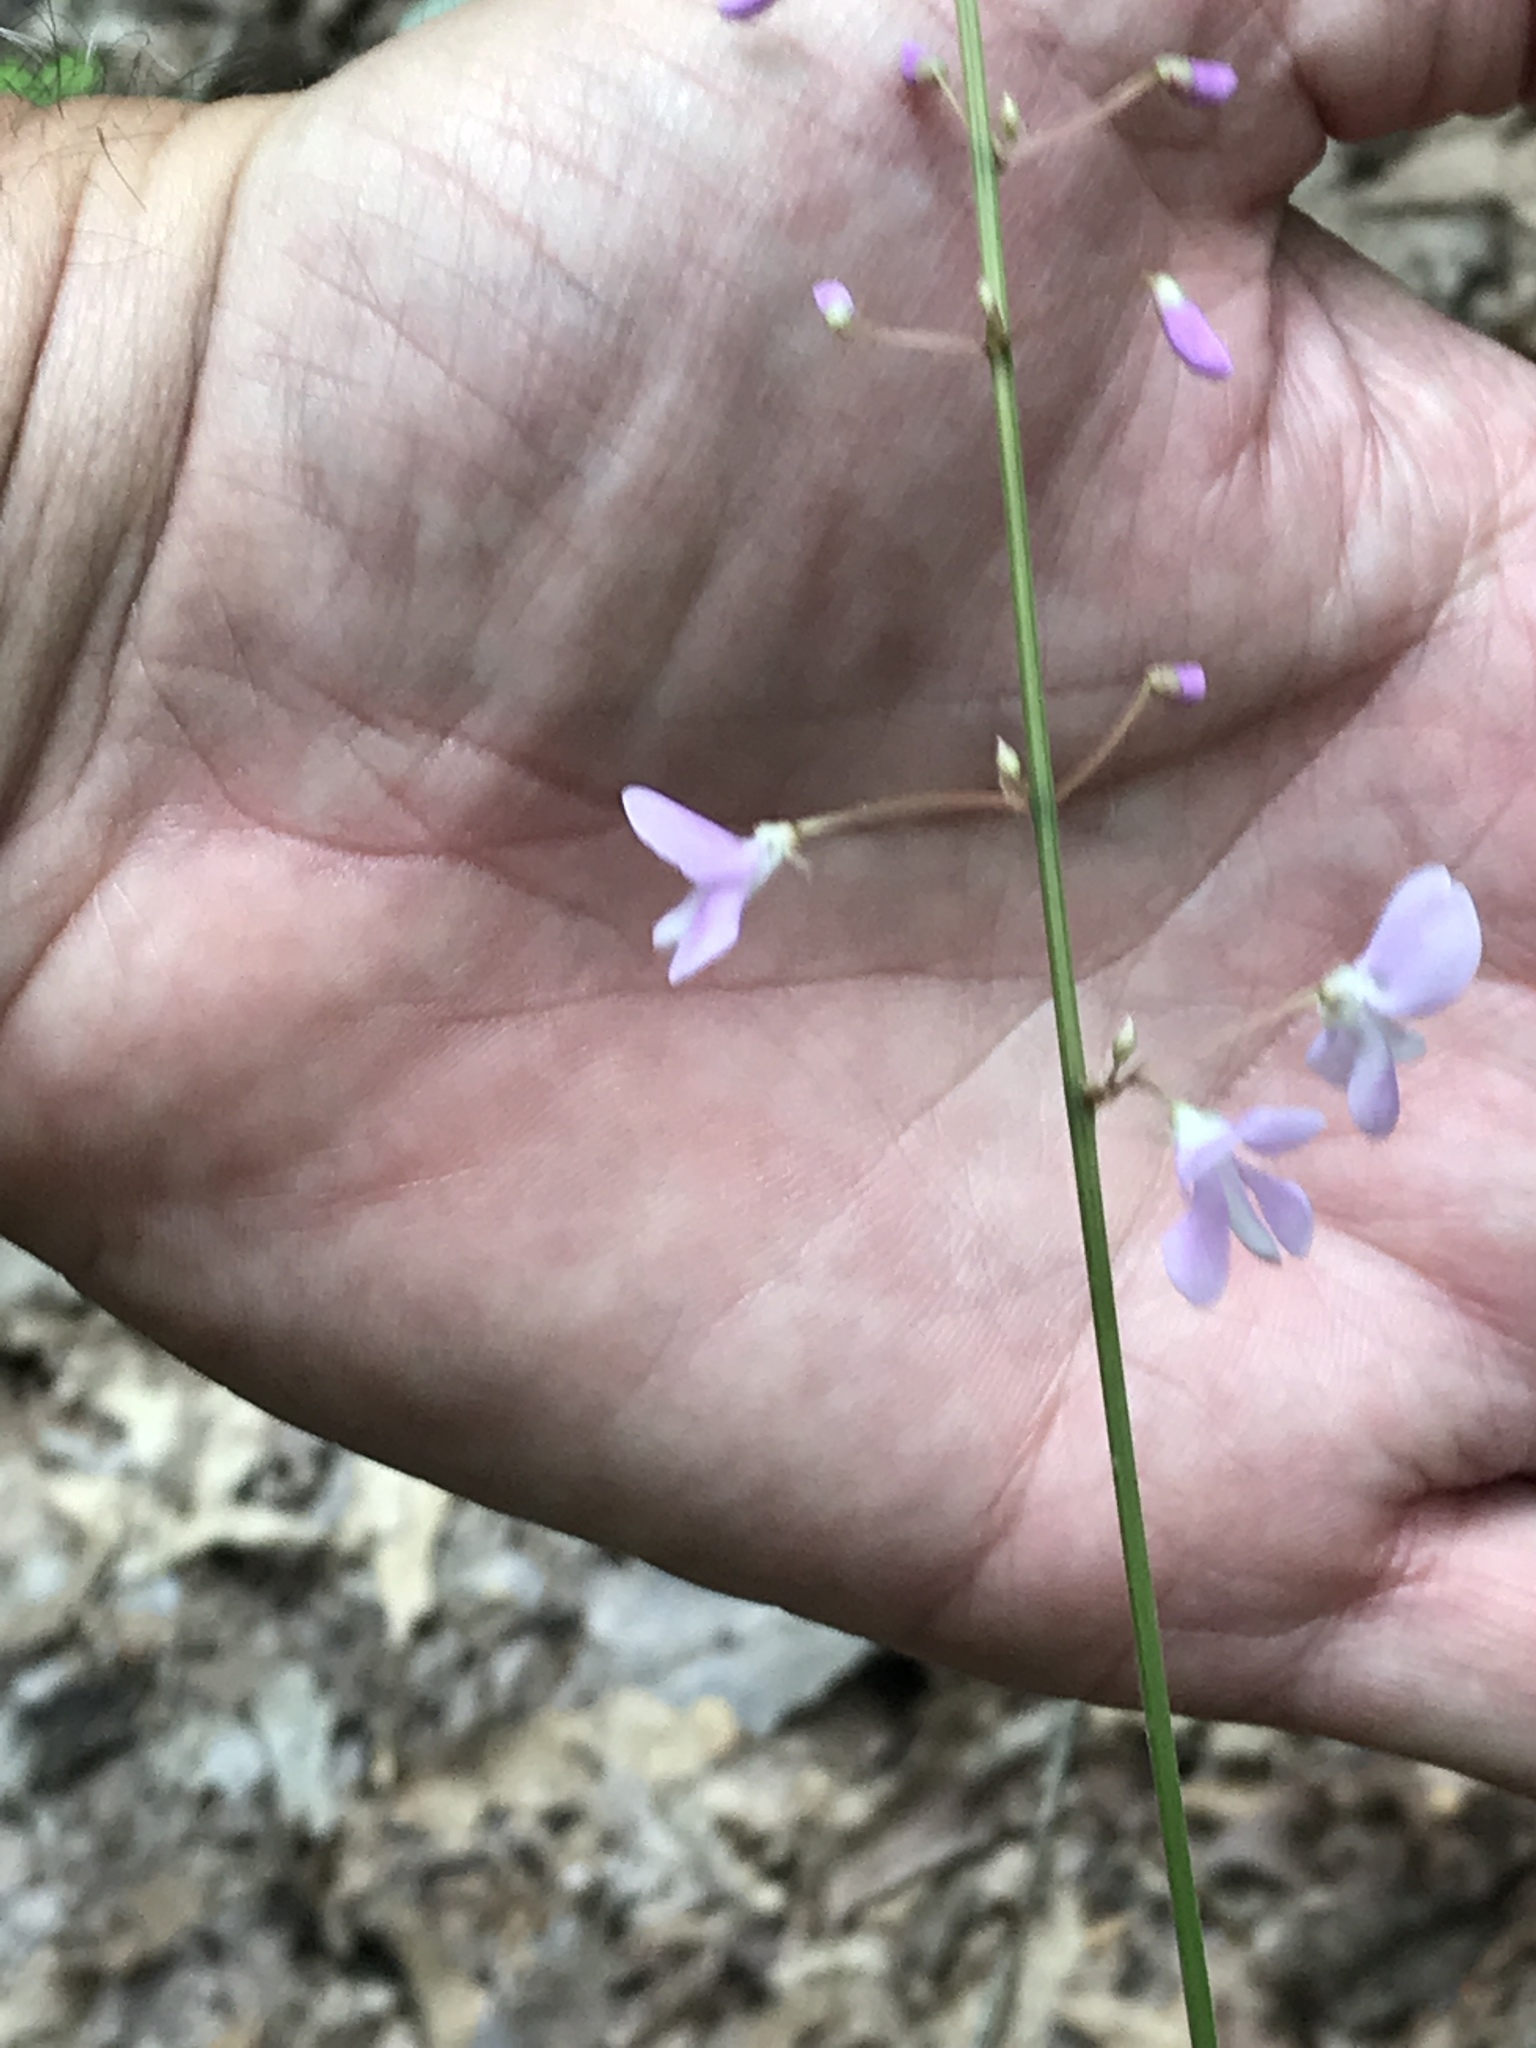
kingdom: Plantae
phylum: Tracheophyta
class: Magnoliopsida
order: Fabales
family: Fabaceae
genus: Hylodesmum
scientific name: Hylodesmum nudiflorum
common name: Bare-stemmed tick-trefoil
